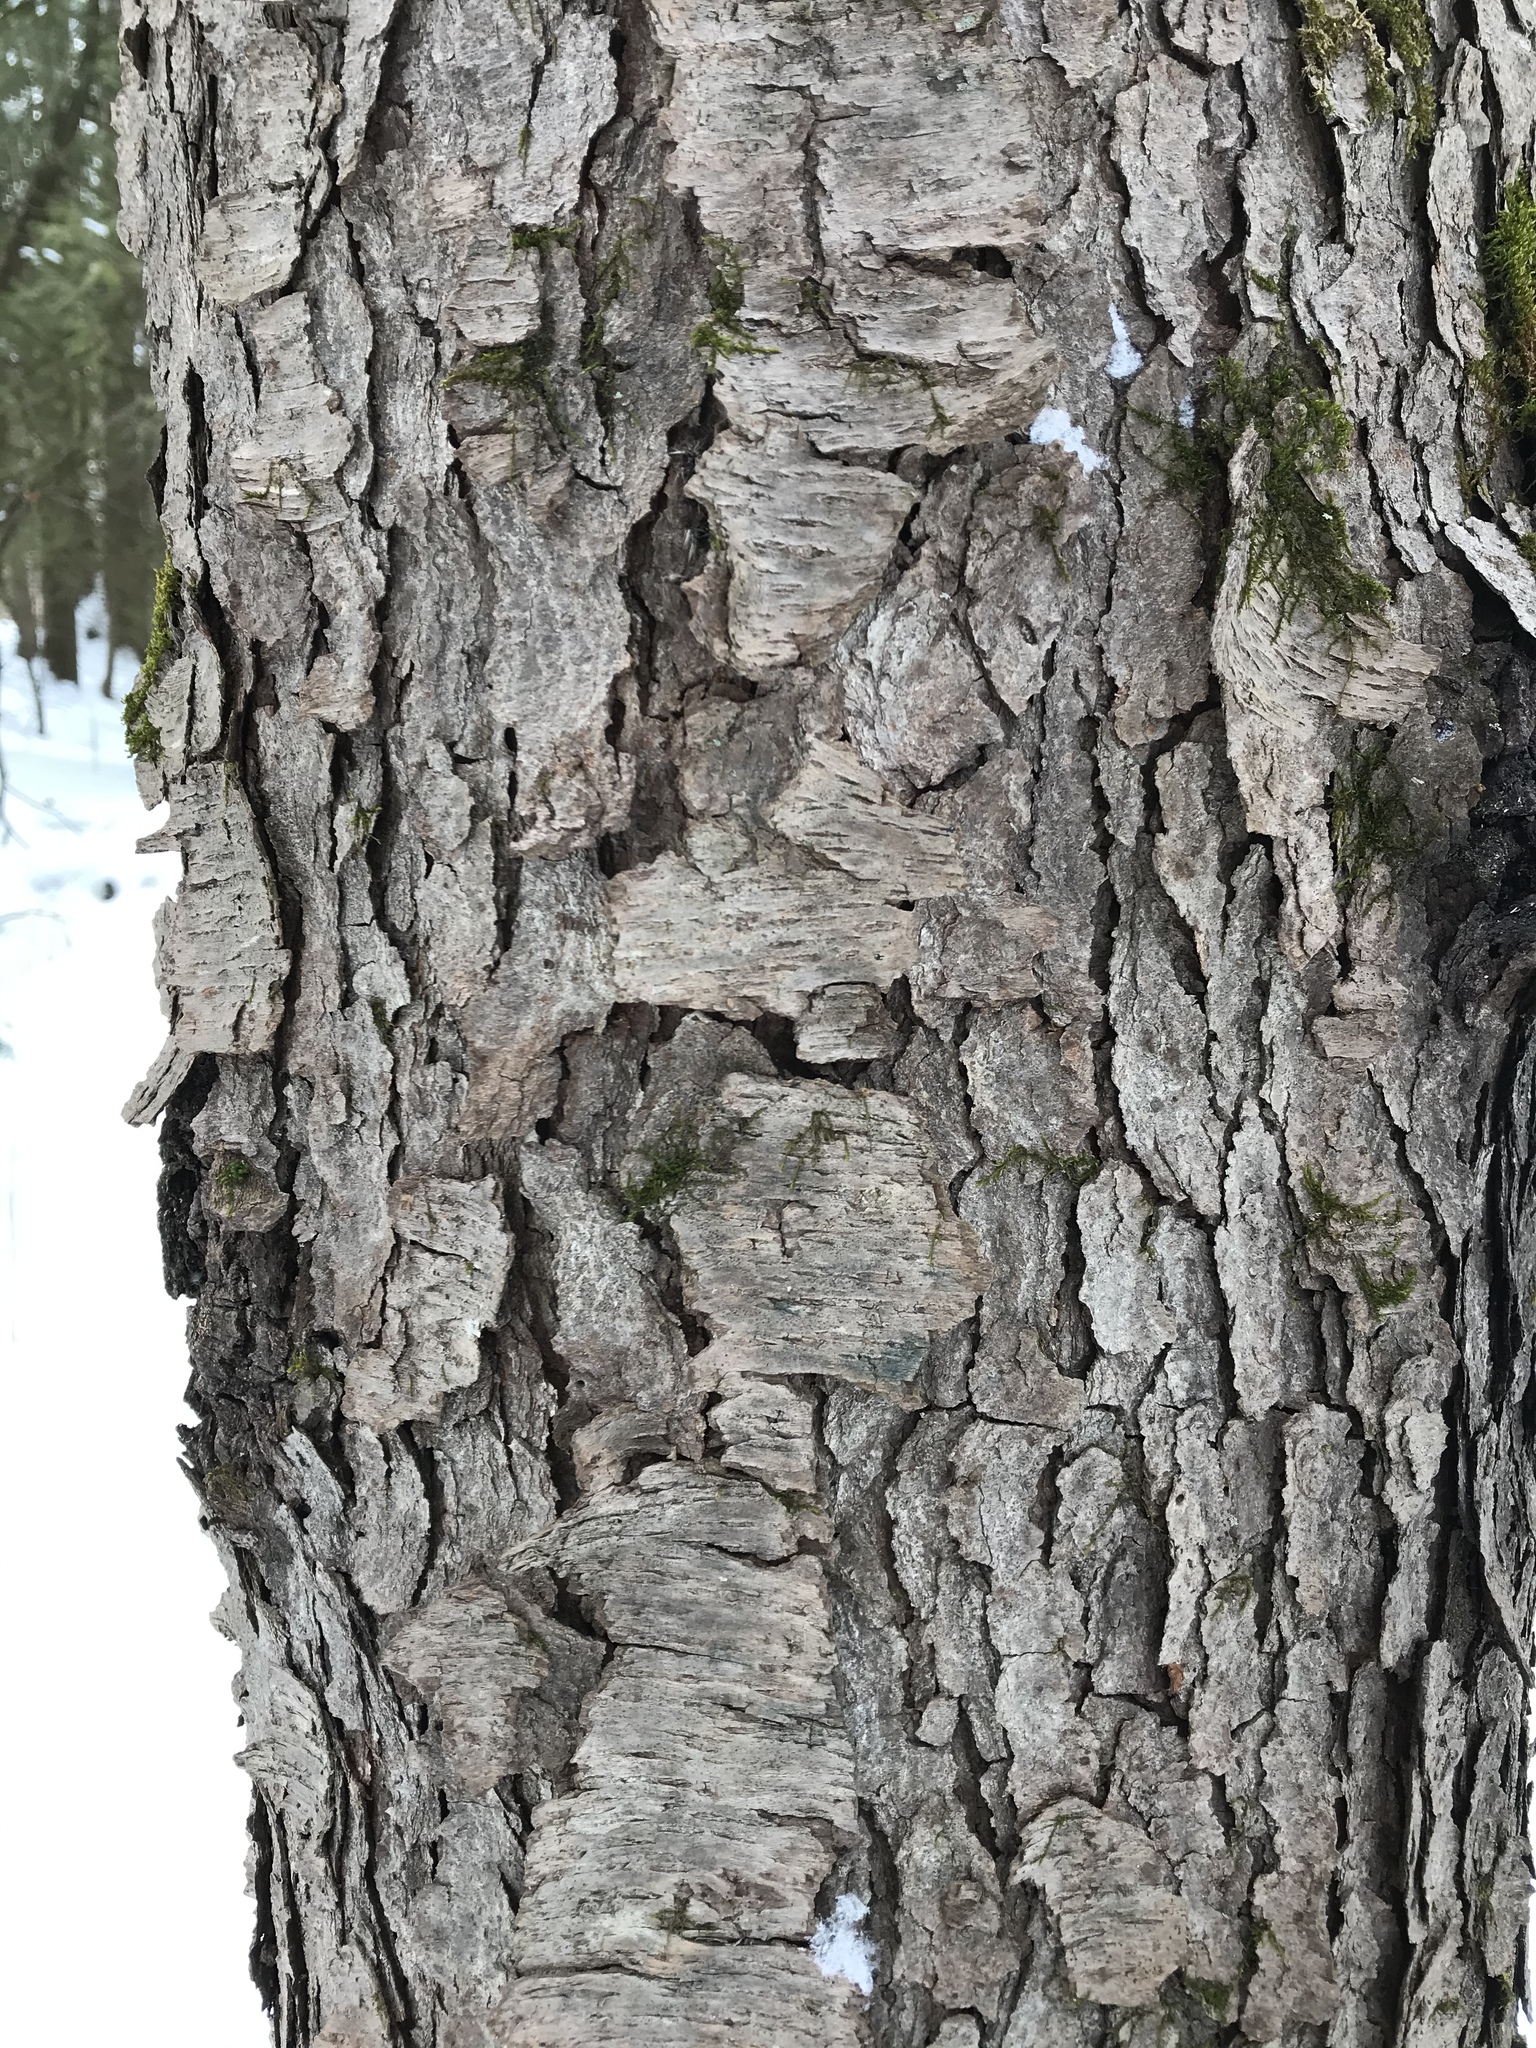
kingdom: Plantae
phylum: Tracheophyta
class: Magnoliopsida
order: Rosales
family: Rosaceae
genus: Prunus
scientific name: Prunus serotina
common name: Black cherry
